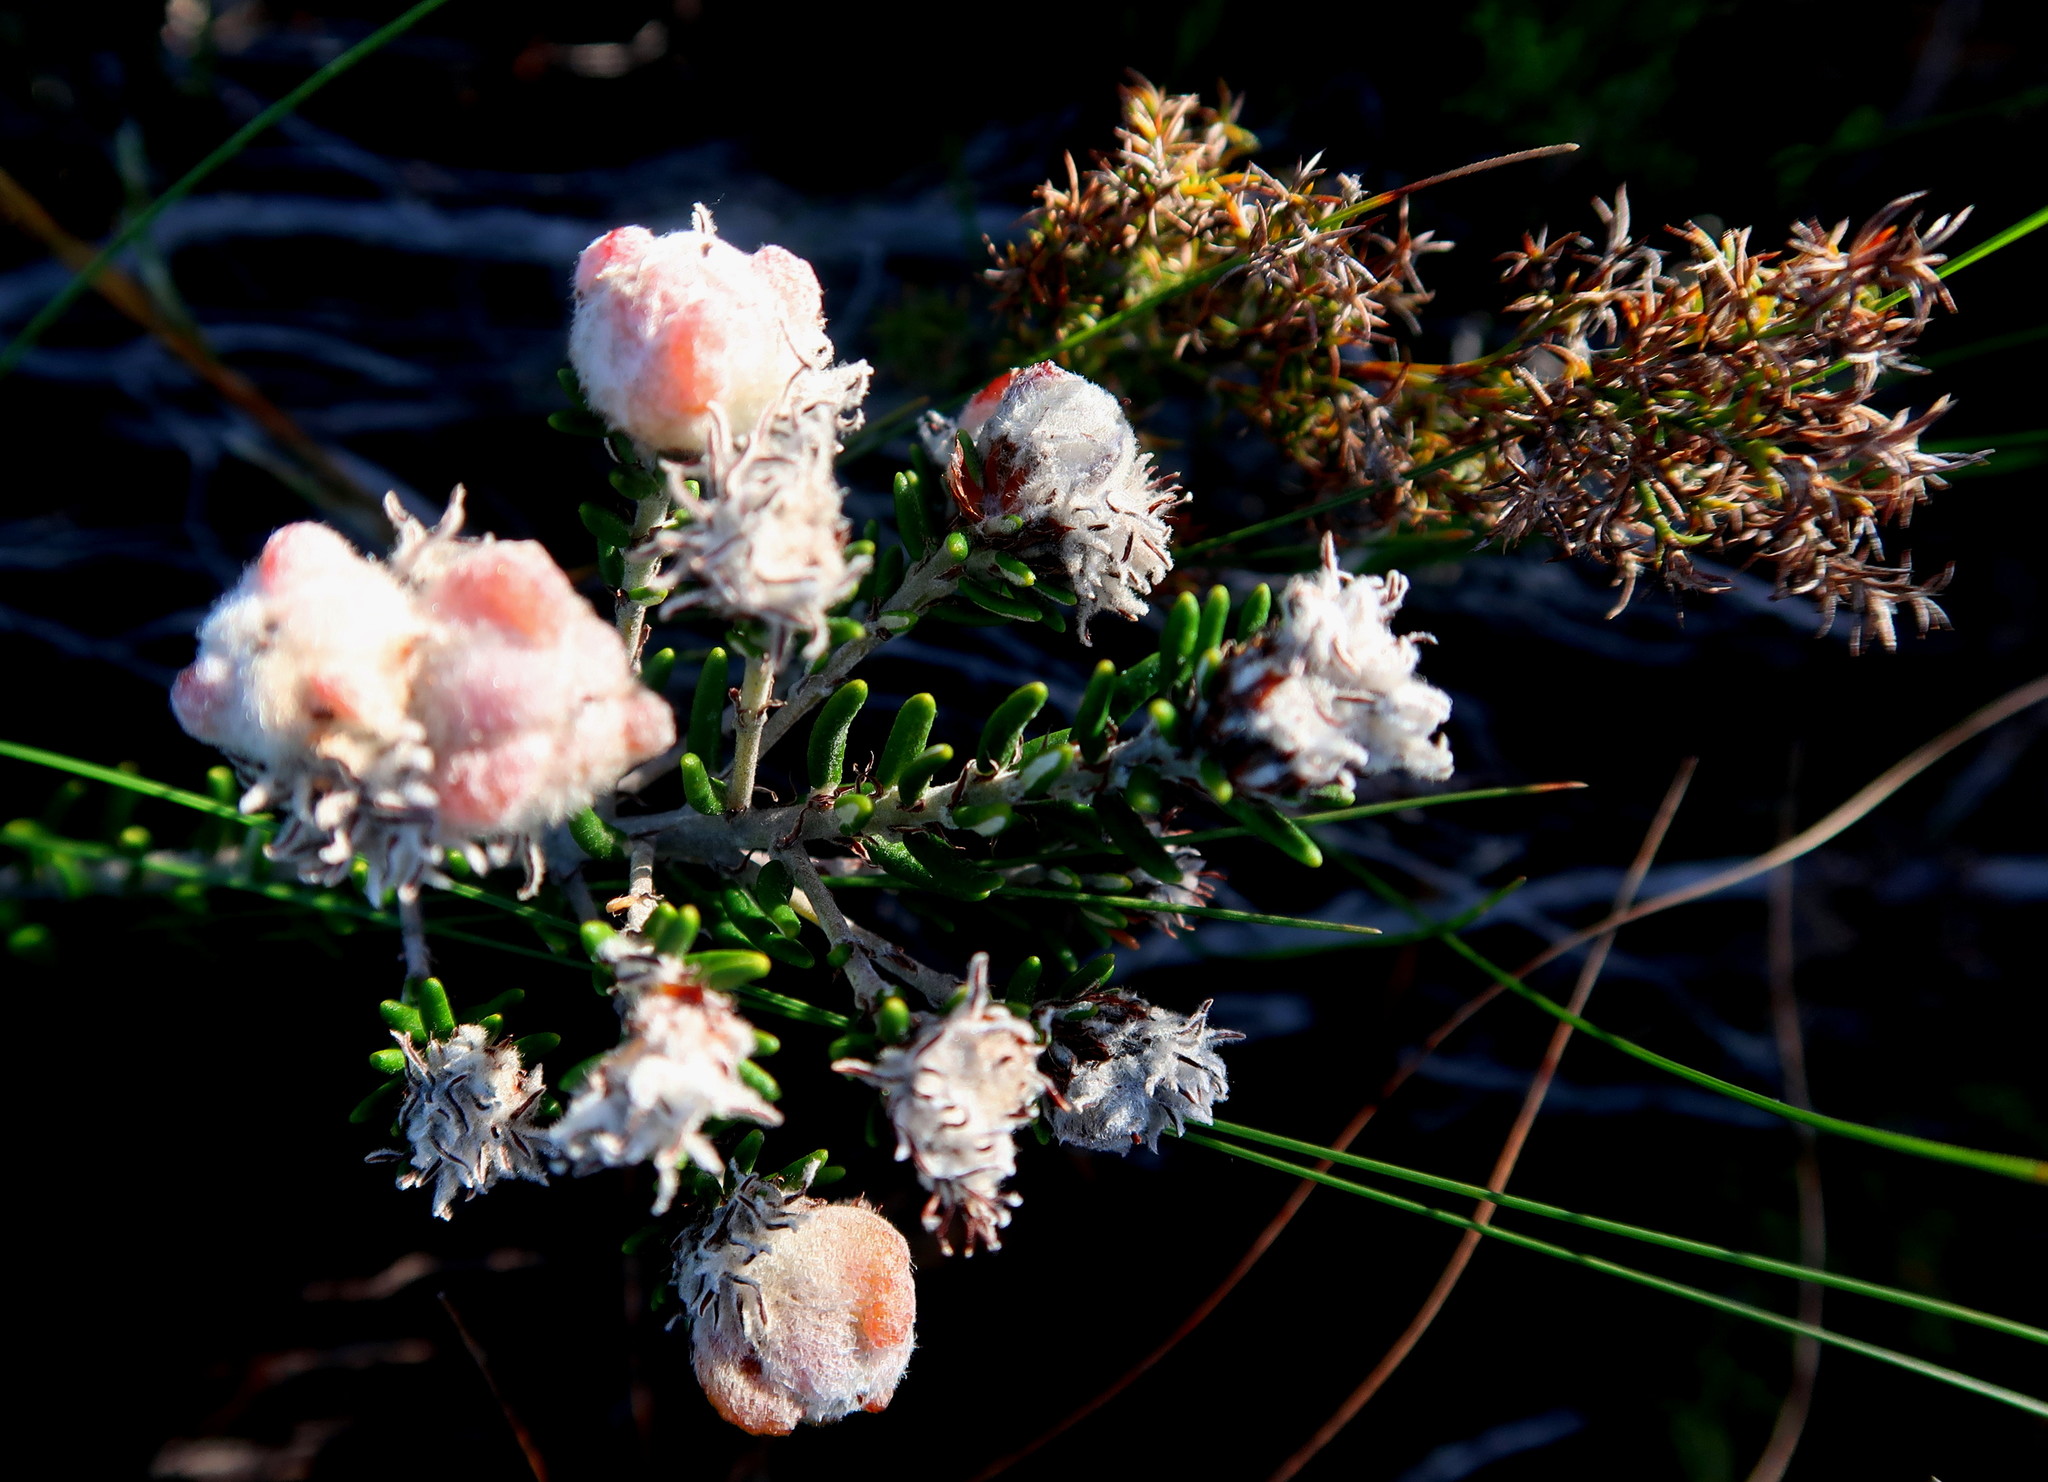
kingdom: Plantae
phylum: Tracheophyta
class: Magnoliopsida
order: Rosales
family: Rhamnaceae
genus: Trichocephalus
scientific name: Trichocephalus stipularis
